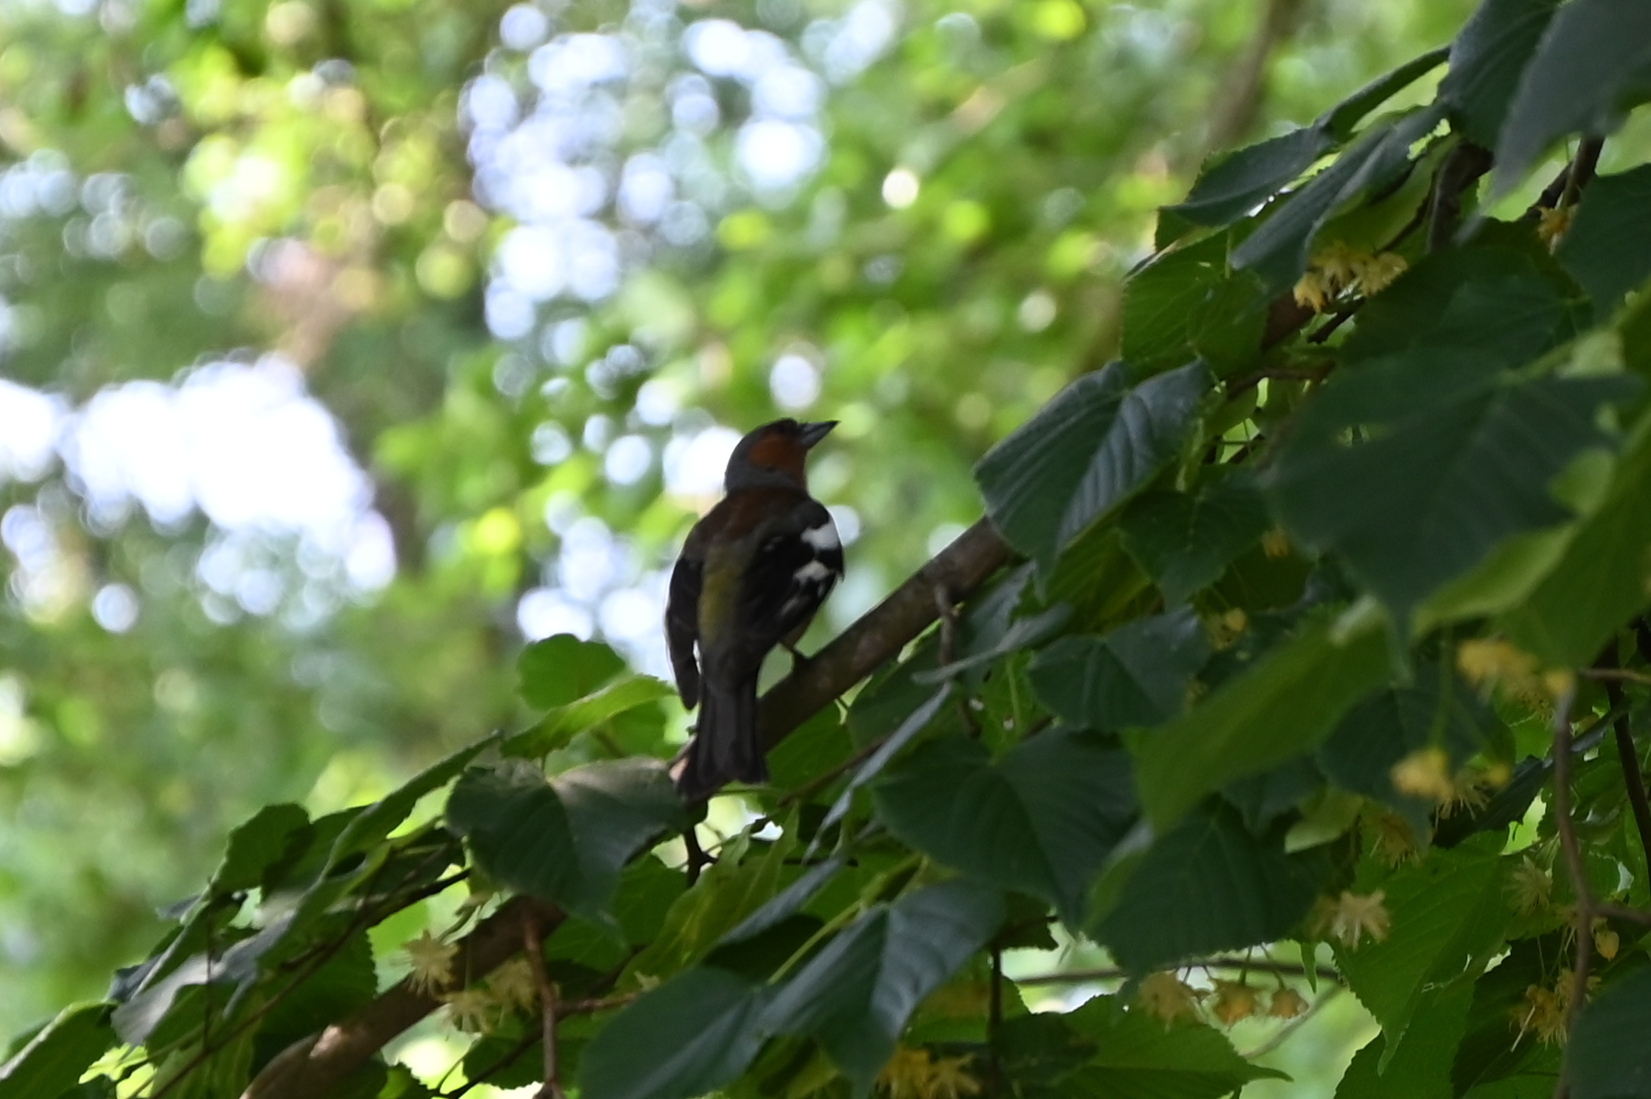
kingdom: Animalia
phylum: Chordata
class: Aves
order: Passeriformes
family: Fringillidae
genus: Fringilla
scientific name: Fringilla coelebs
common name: Common chaffinch
